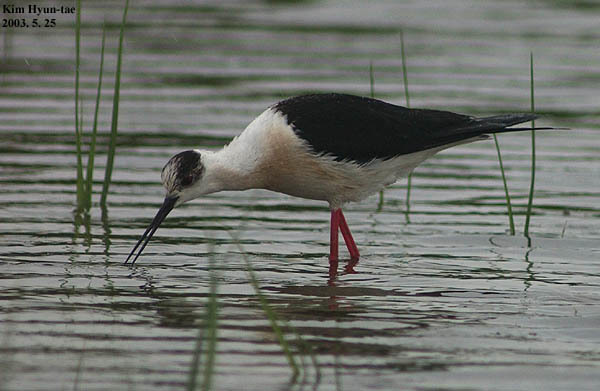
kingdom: Animalia
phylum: Chordata
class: Aves
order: Charadriiformes
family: Recurvirostridae
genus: Himantopus
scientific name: Himantopus himantopus
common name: Black-winged stilt
